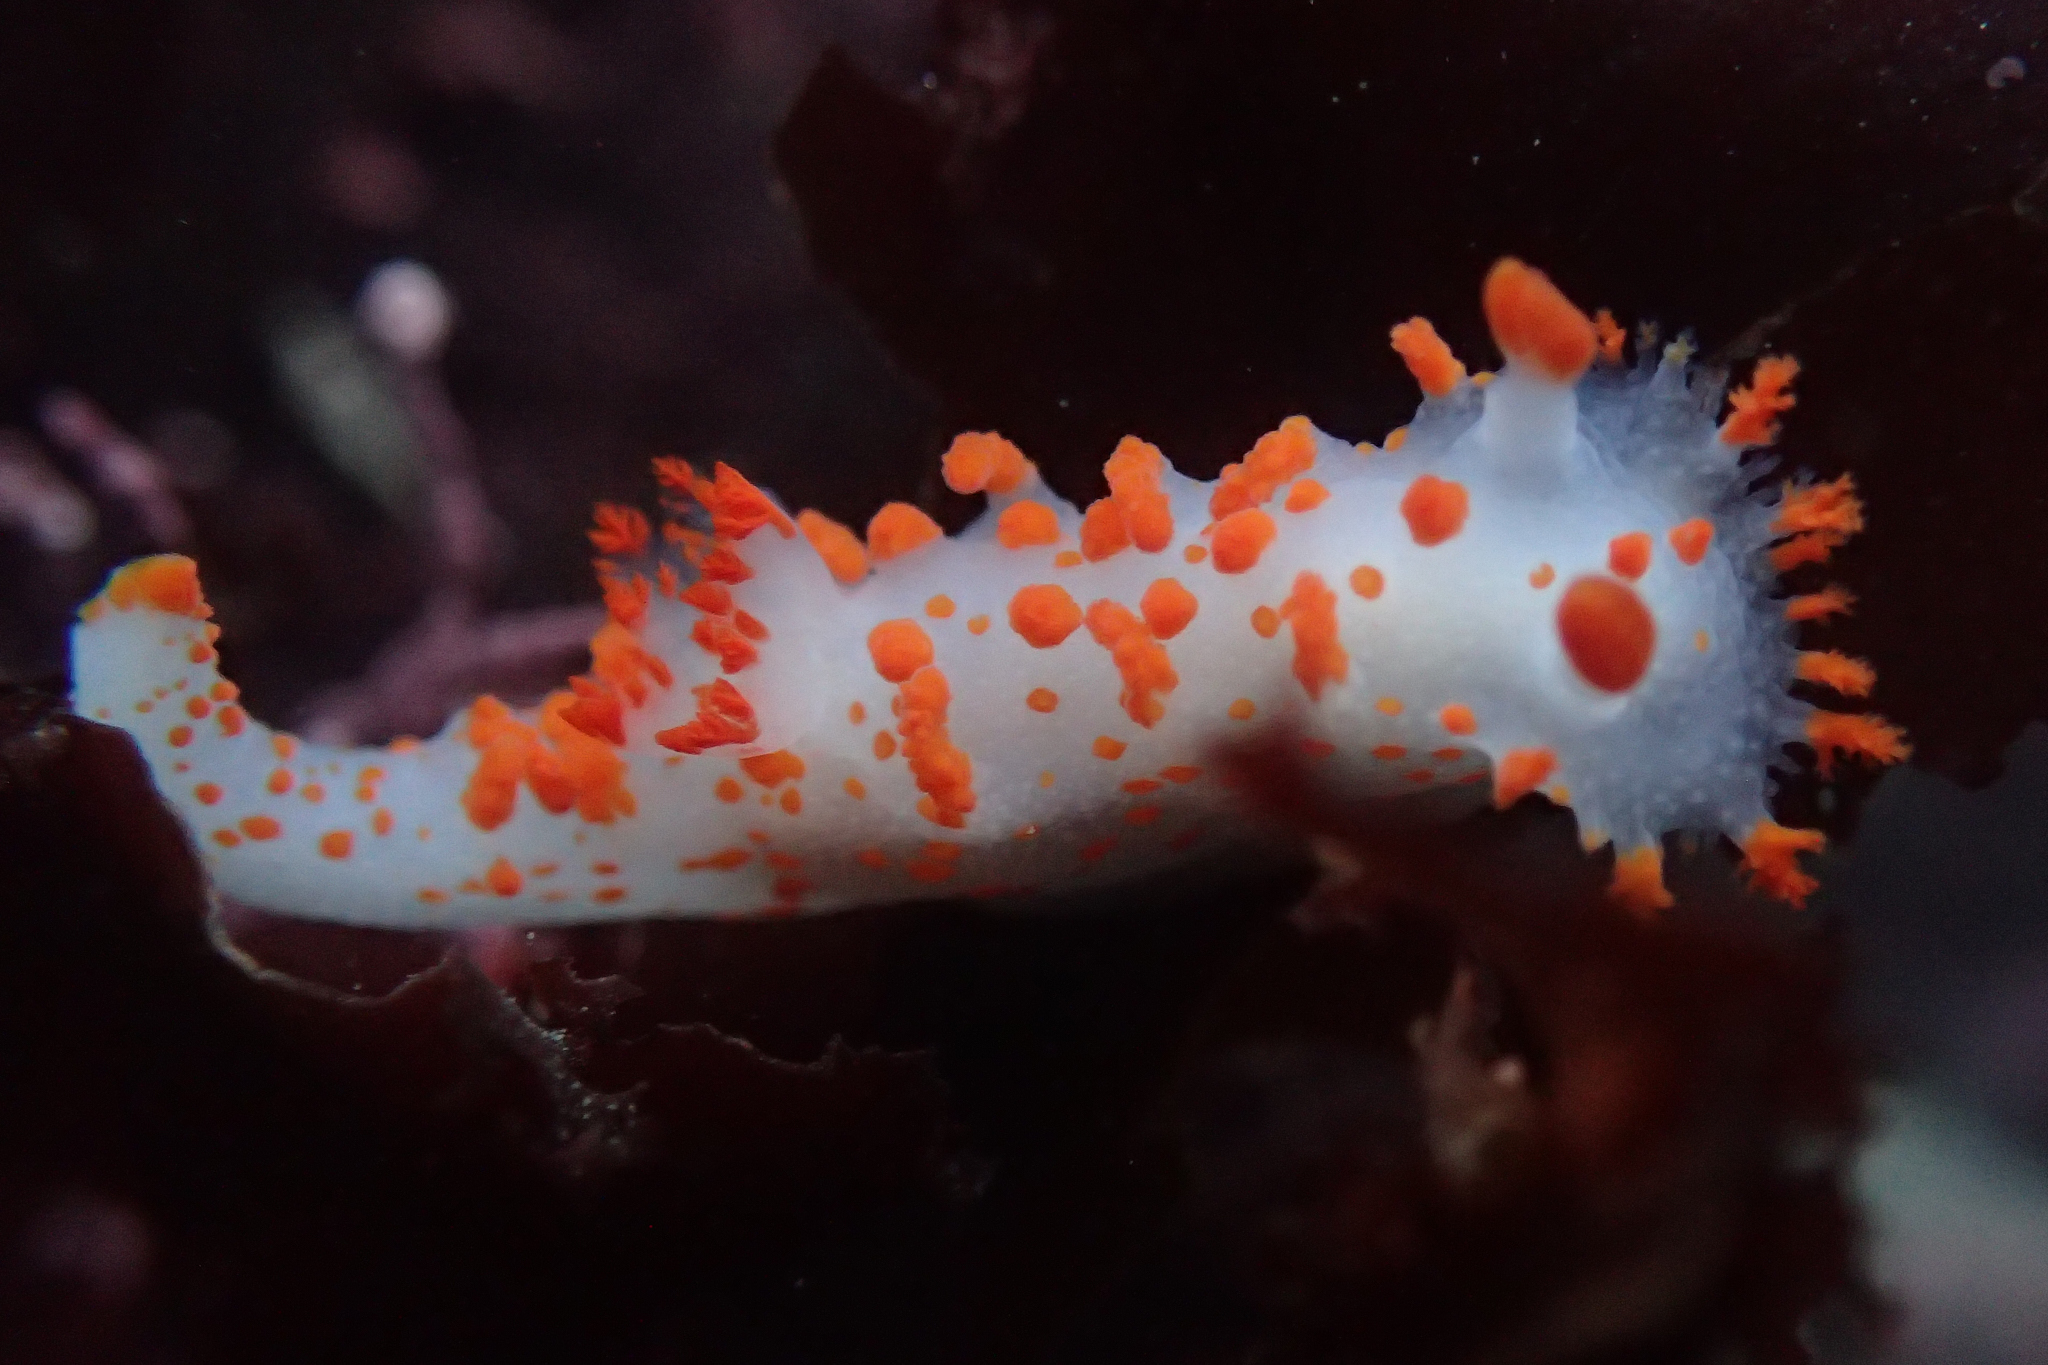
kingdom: Animalia
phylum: Mollusca
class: Gastropoda
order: Nudibranchia
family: Polyceridae
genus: Triopha
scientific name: Triopha catalinae
